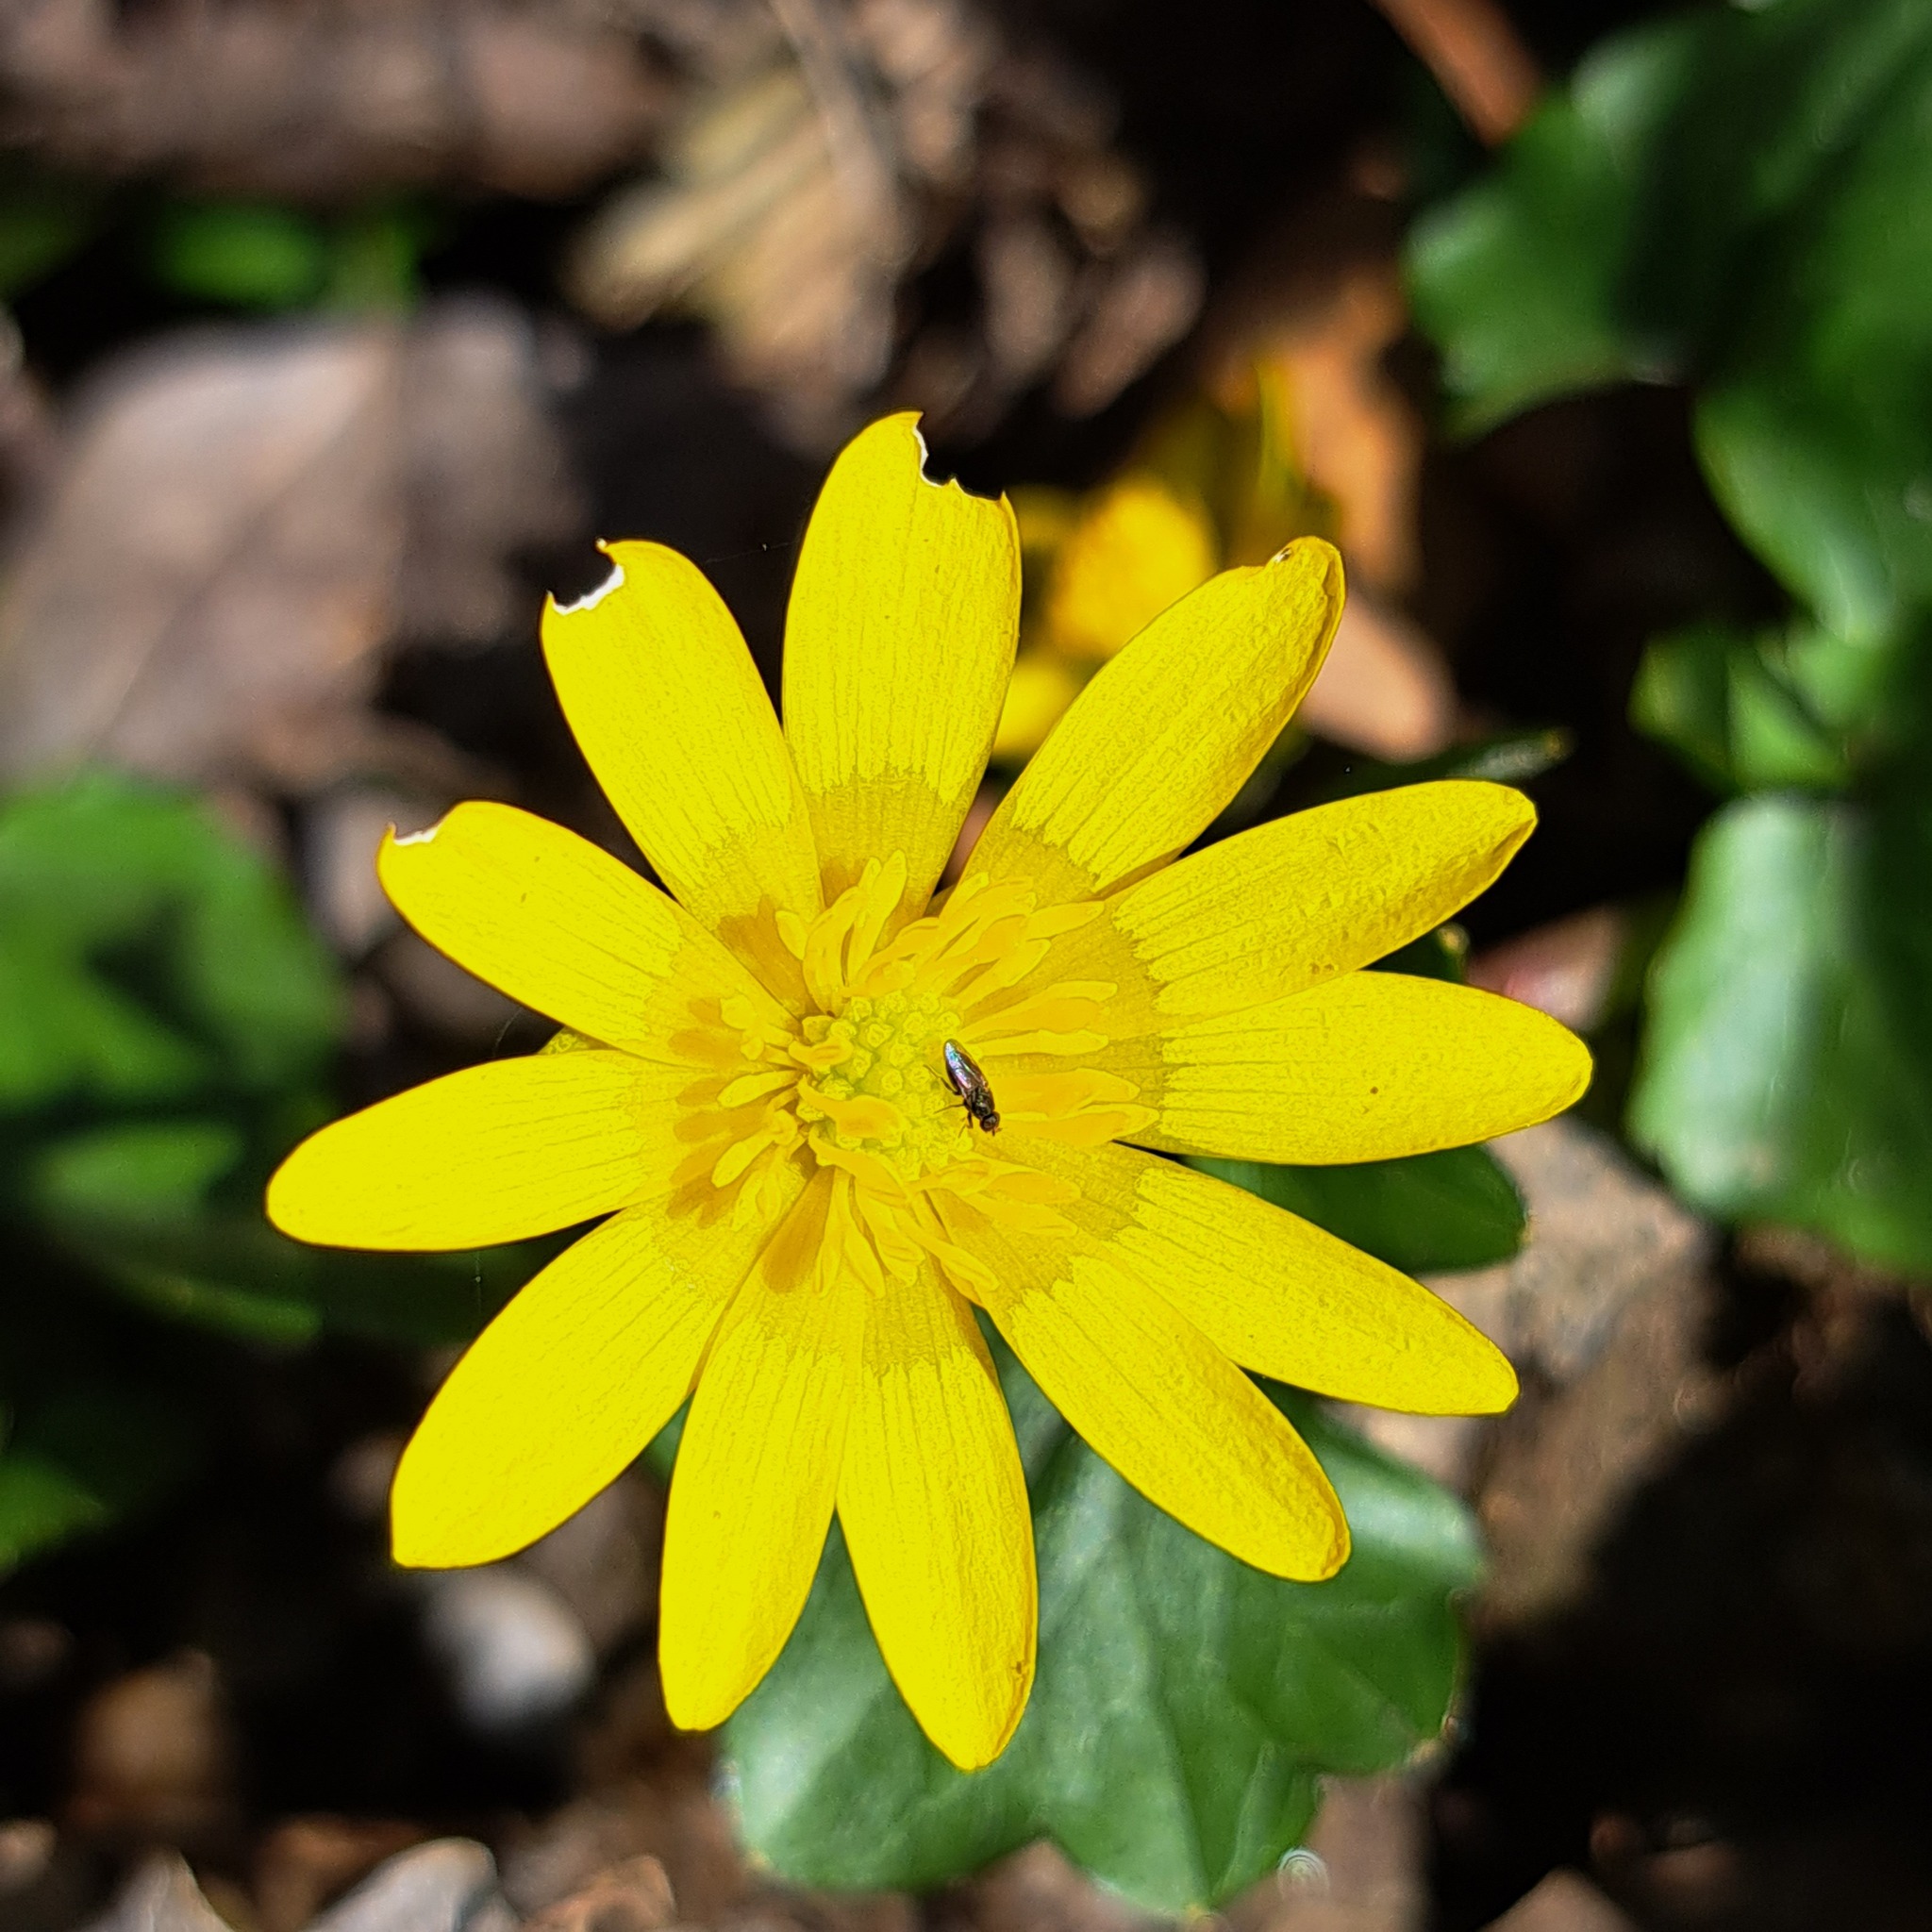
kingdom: Plantae
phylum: Tracheophyta
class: Magnoliopsida
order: Ranunculales
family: Ranunculaceae
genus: Ficaria
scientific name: Ficaria verna
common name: Lesser celandine
